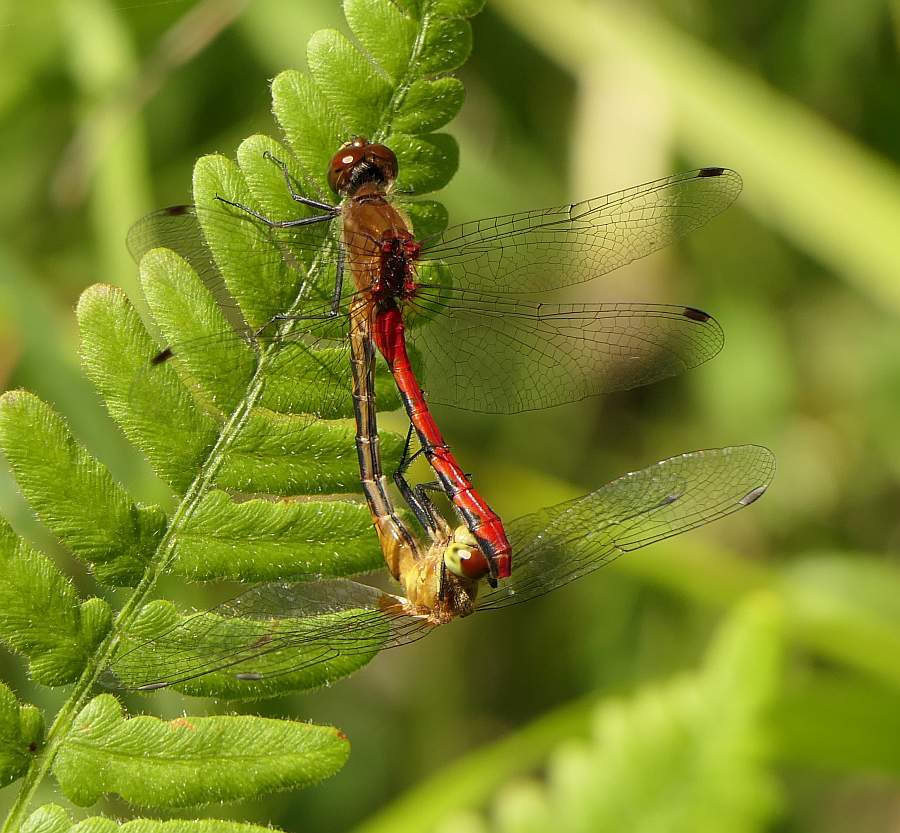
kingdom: Animalia
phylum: Arthropoda
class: Insecta
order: Odonata
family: Libellulidae
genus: Sympetrum
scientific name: Sympetrum obtrusum
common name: White-faced meadowhawk
